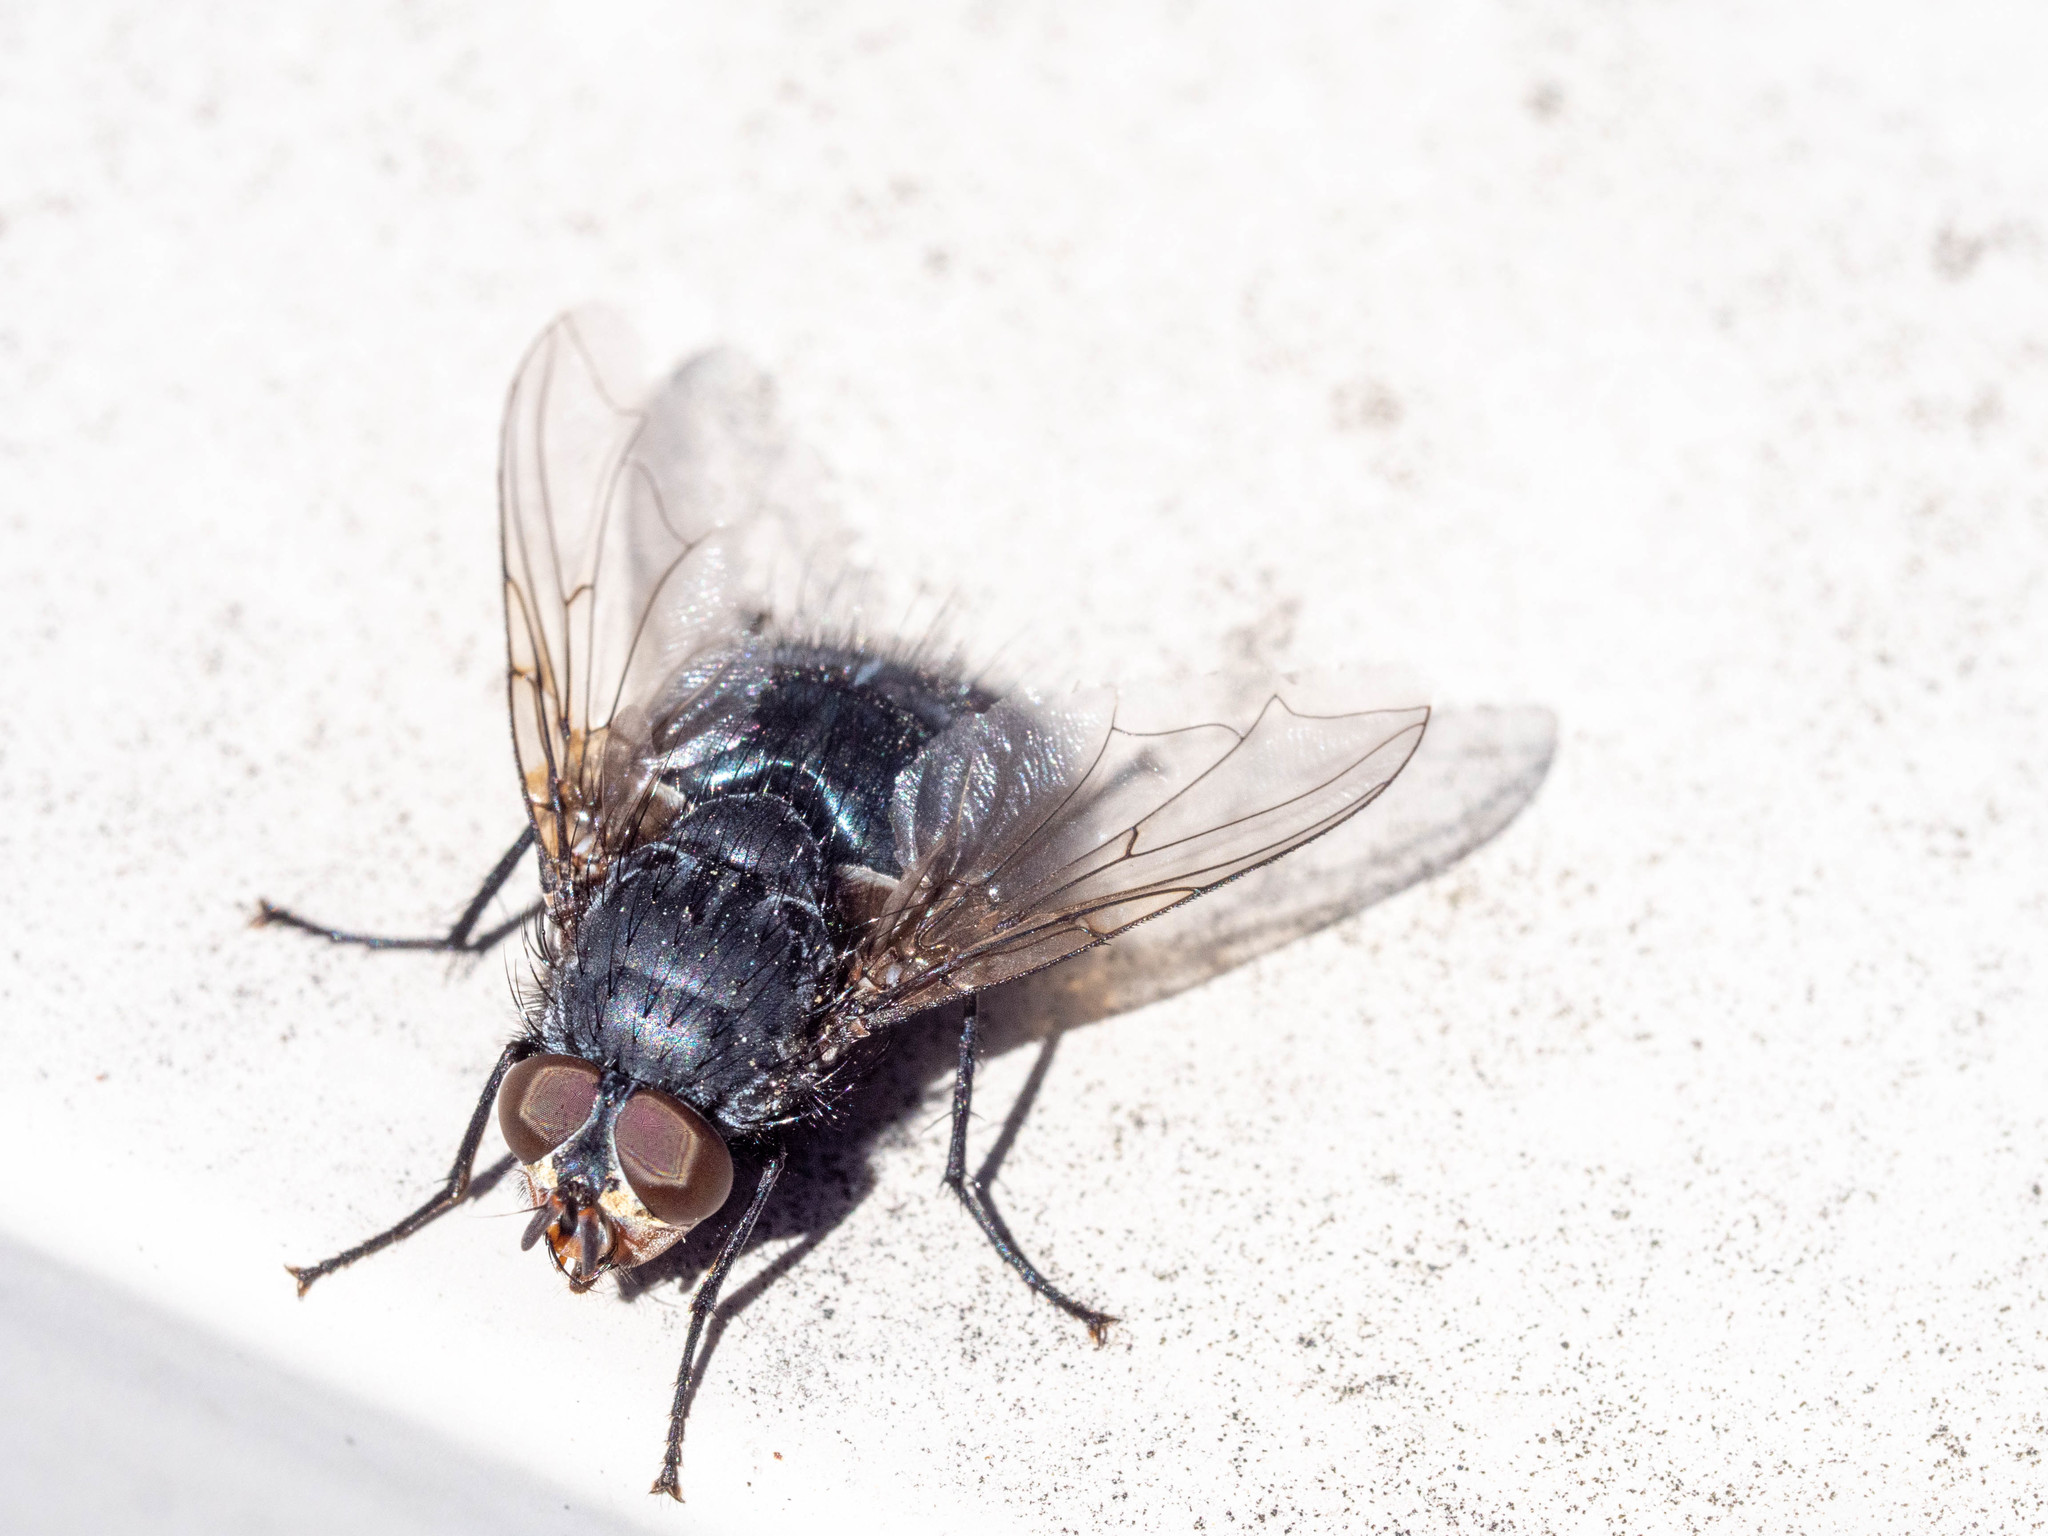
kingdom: Animalia
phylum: Arthropoda
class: Insecta
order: Diptera
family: Calliphoridae
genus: Calliphora
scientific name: Calliphora vicina
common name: Common blow flie
